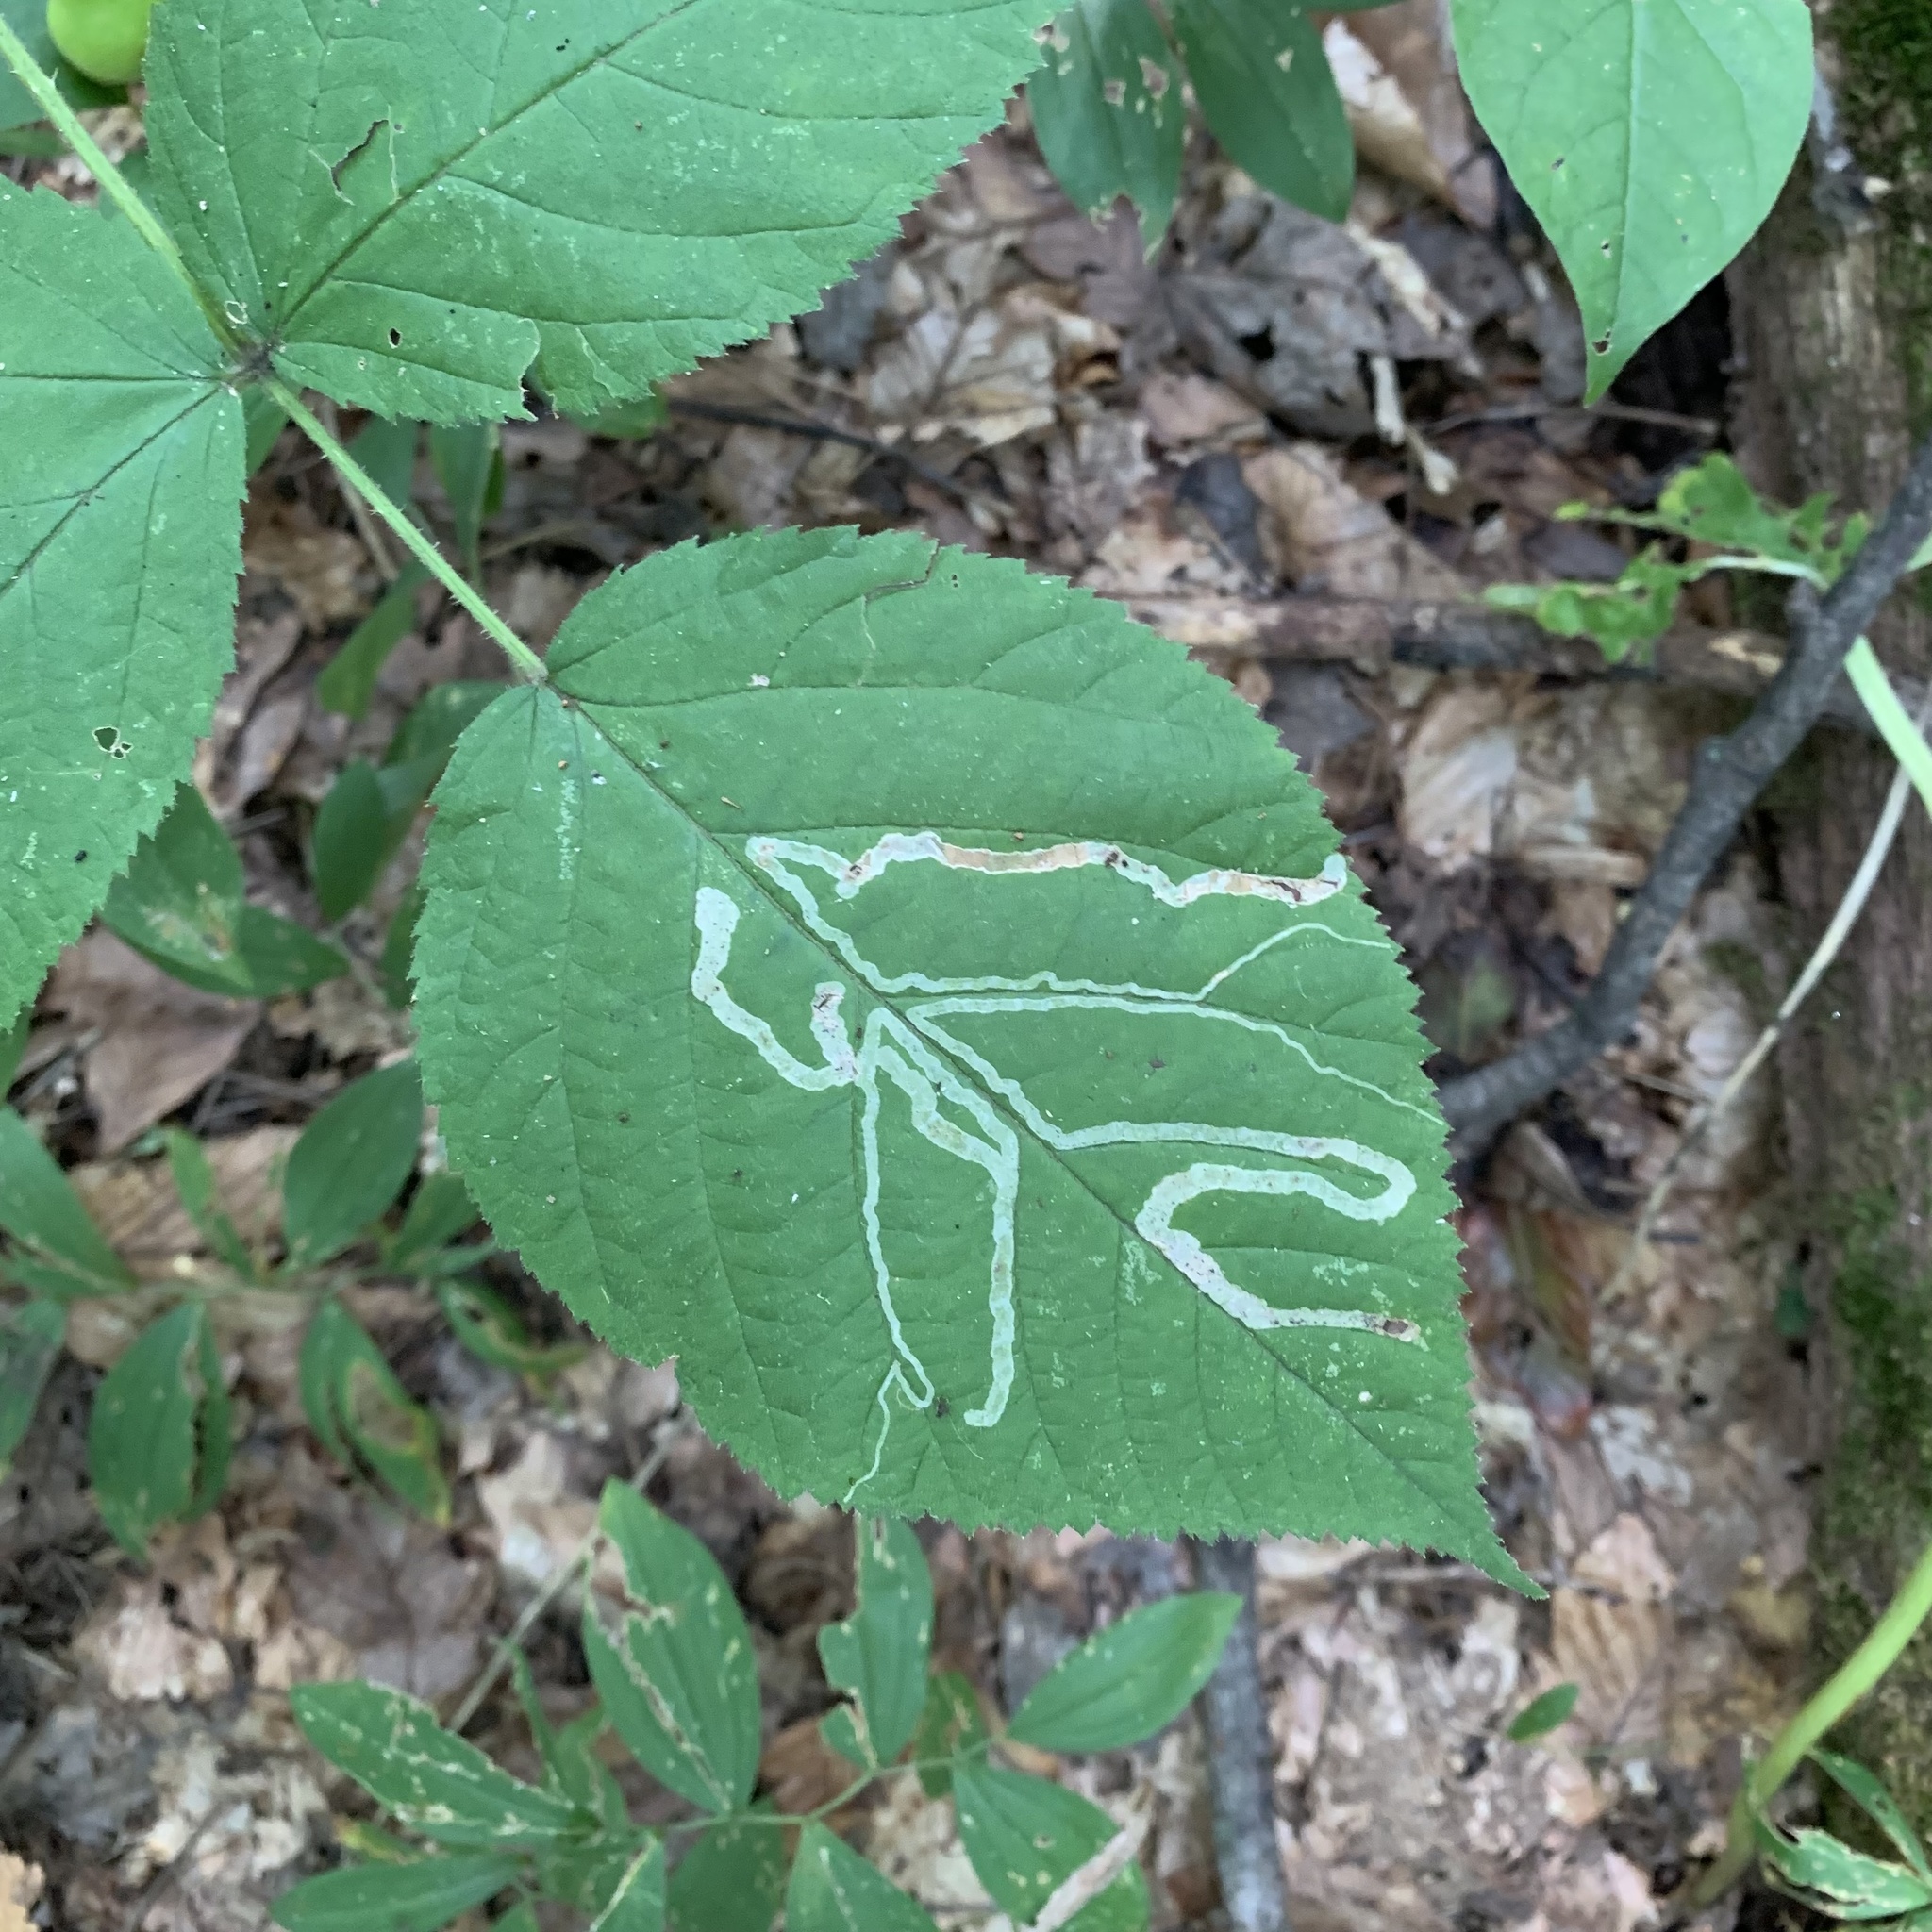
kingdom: Animalia
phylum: Arthropoda
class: Insecta
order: Diptera
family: Agromyzidae
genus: Agromyza
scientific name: Agromyza vockerothi
